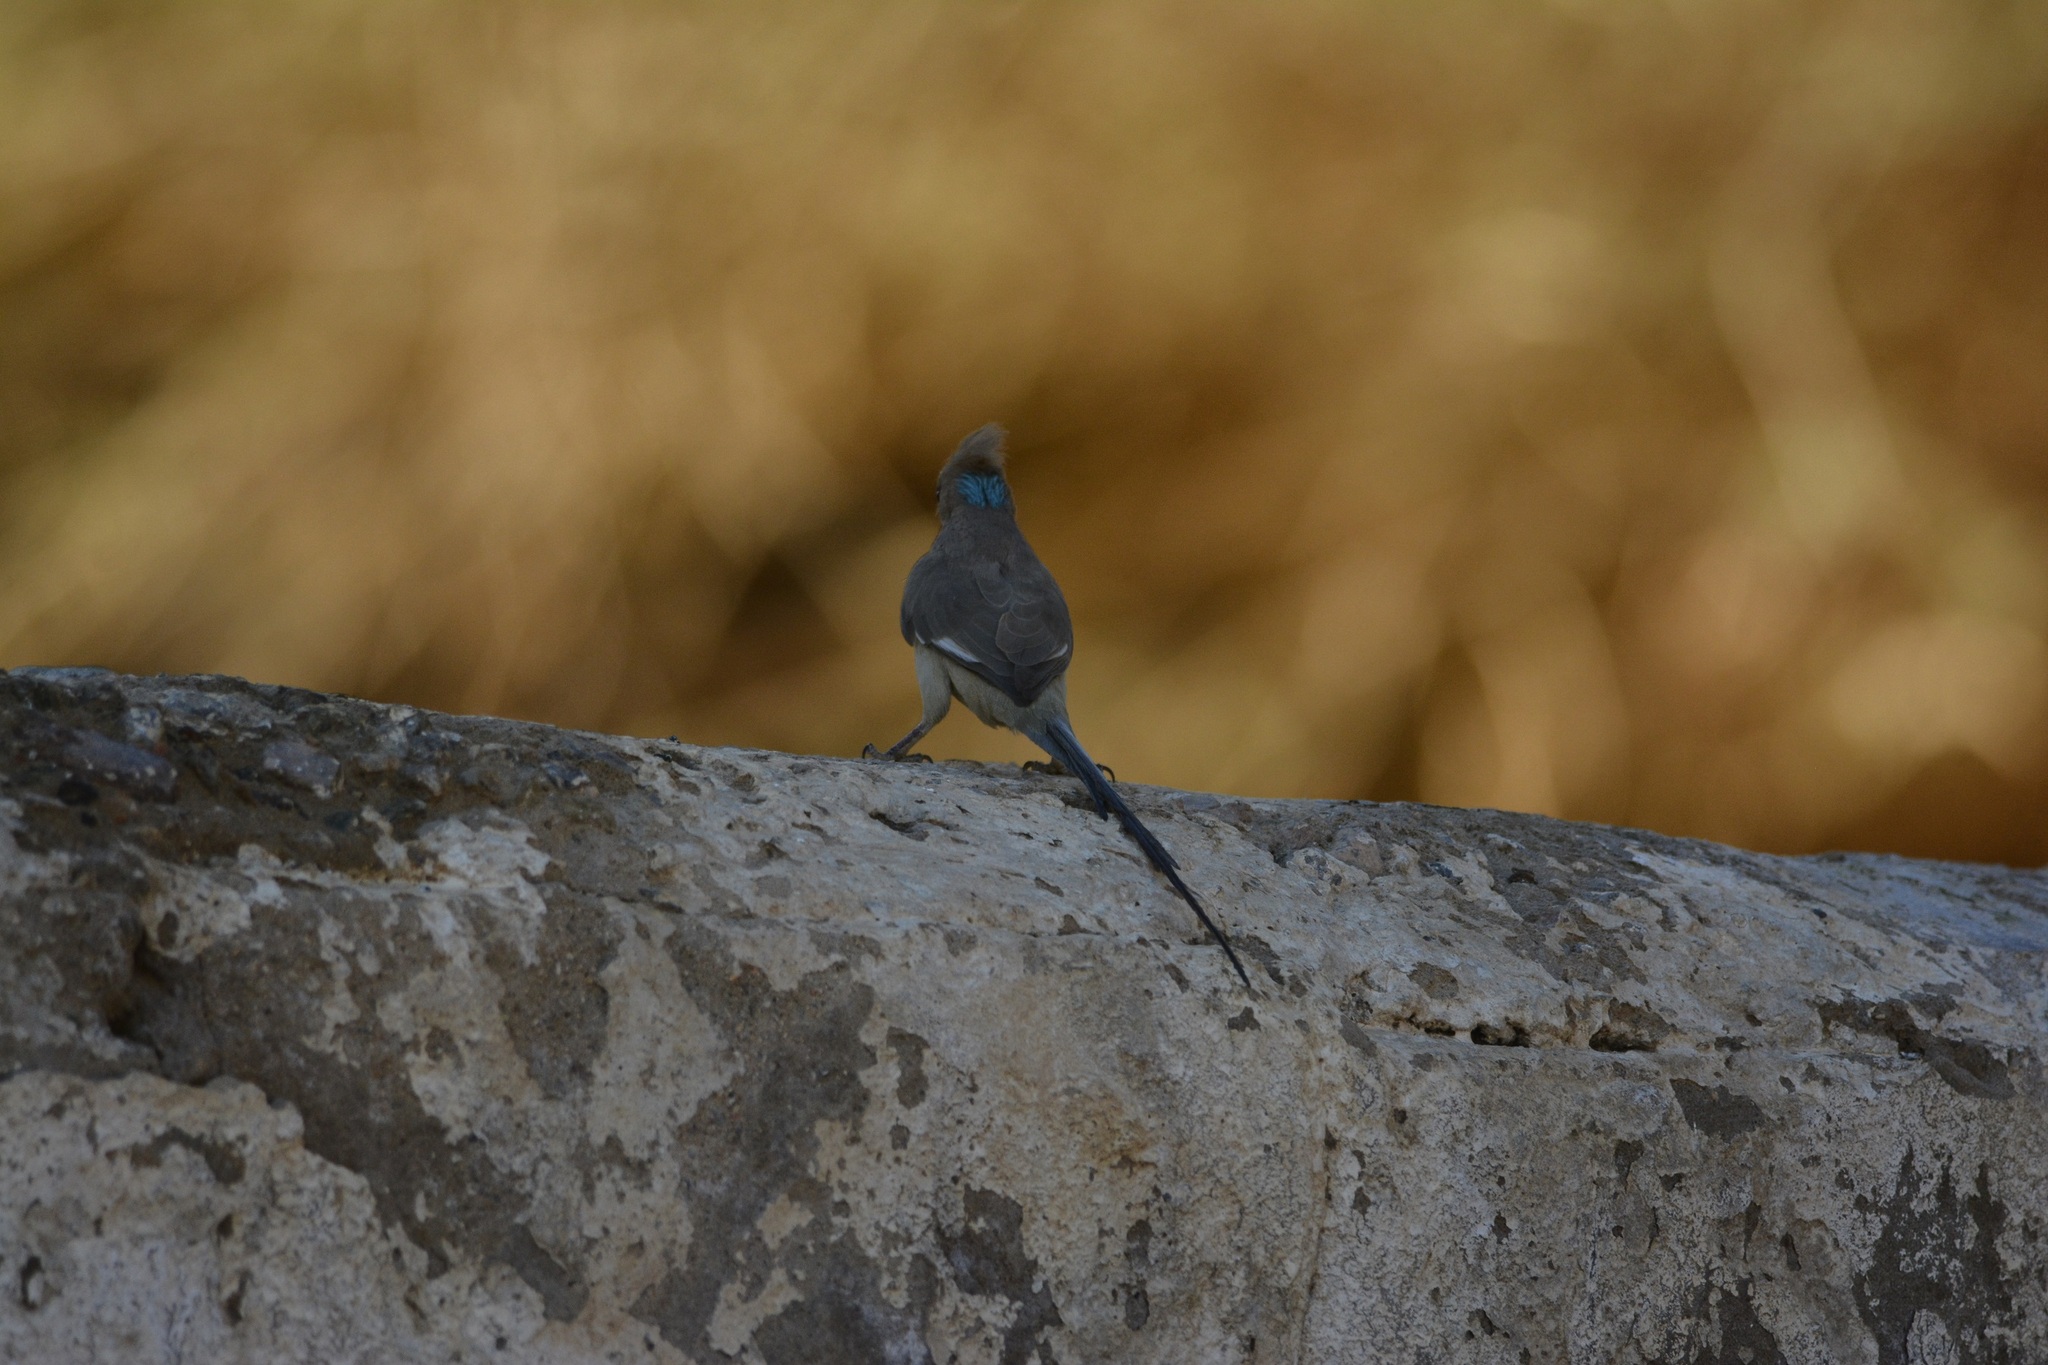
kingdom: Animalia
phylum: Chordata
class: Aves
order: Coliiformes
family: Coliidae
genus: Urocolius
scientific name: Urocolius macrourus
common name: Blue-naped mousebird
